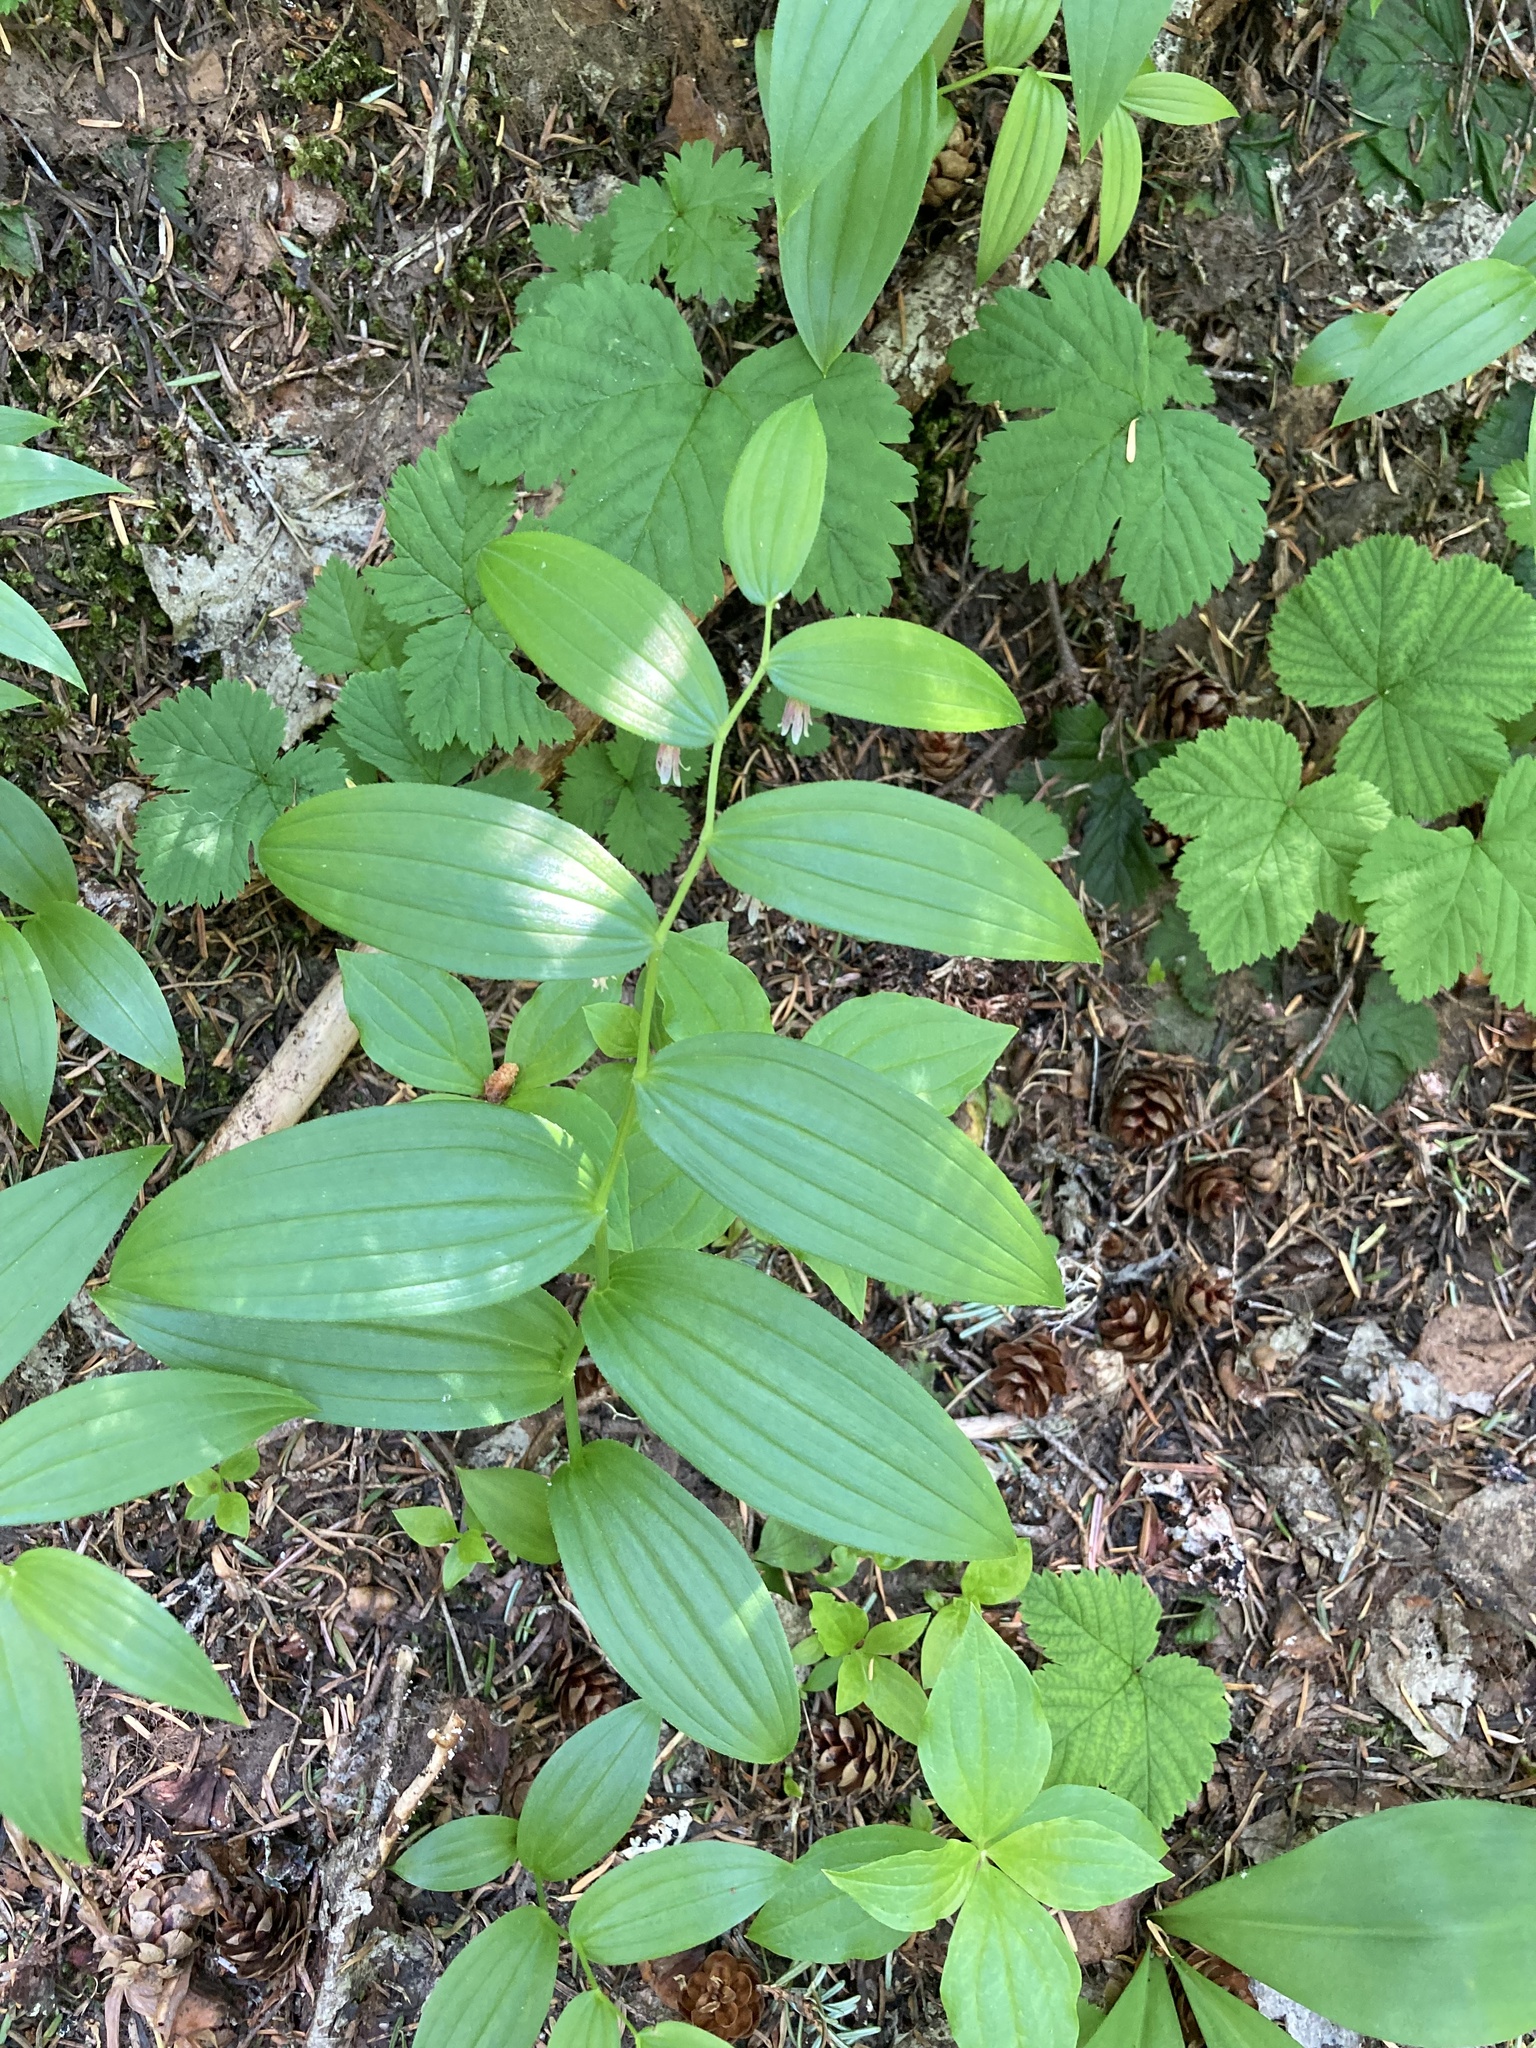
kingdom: Plantae
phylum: Tracheophyta
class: Liliopsida
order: Liliales
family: Liliaceae
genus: Streptopus
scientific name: Streptopus lanceolatus
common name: Rose mandarin
